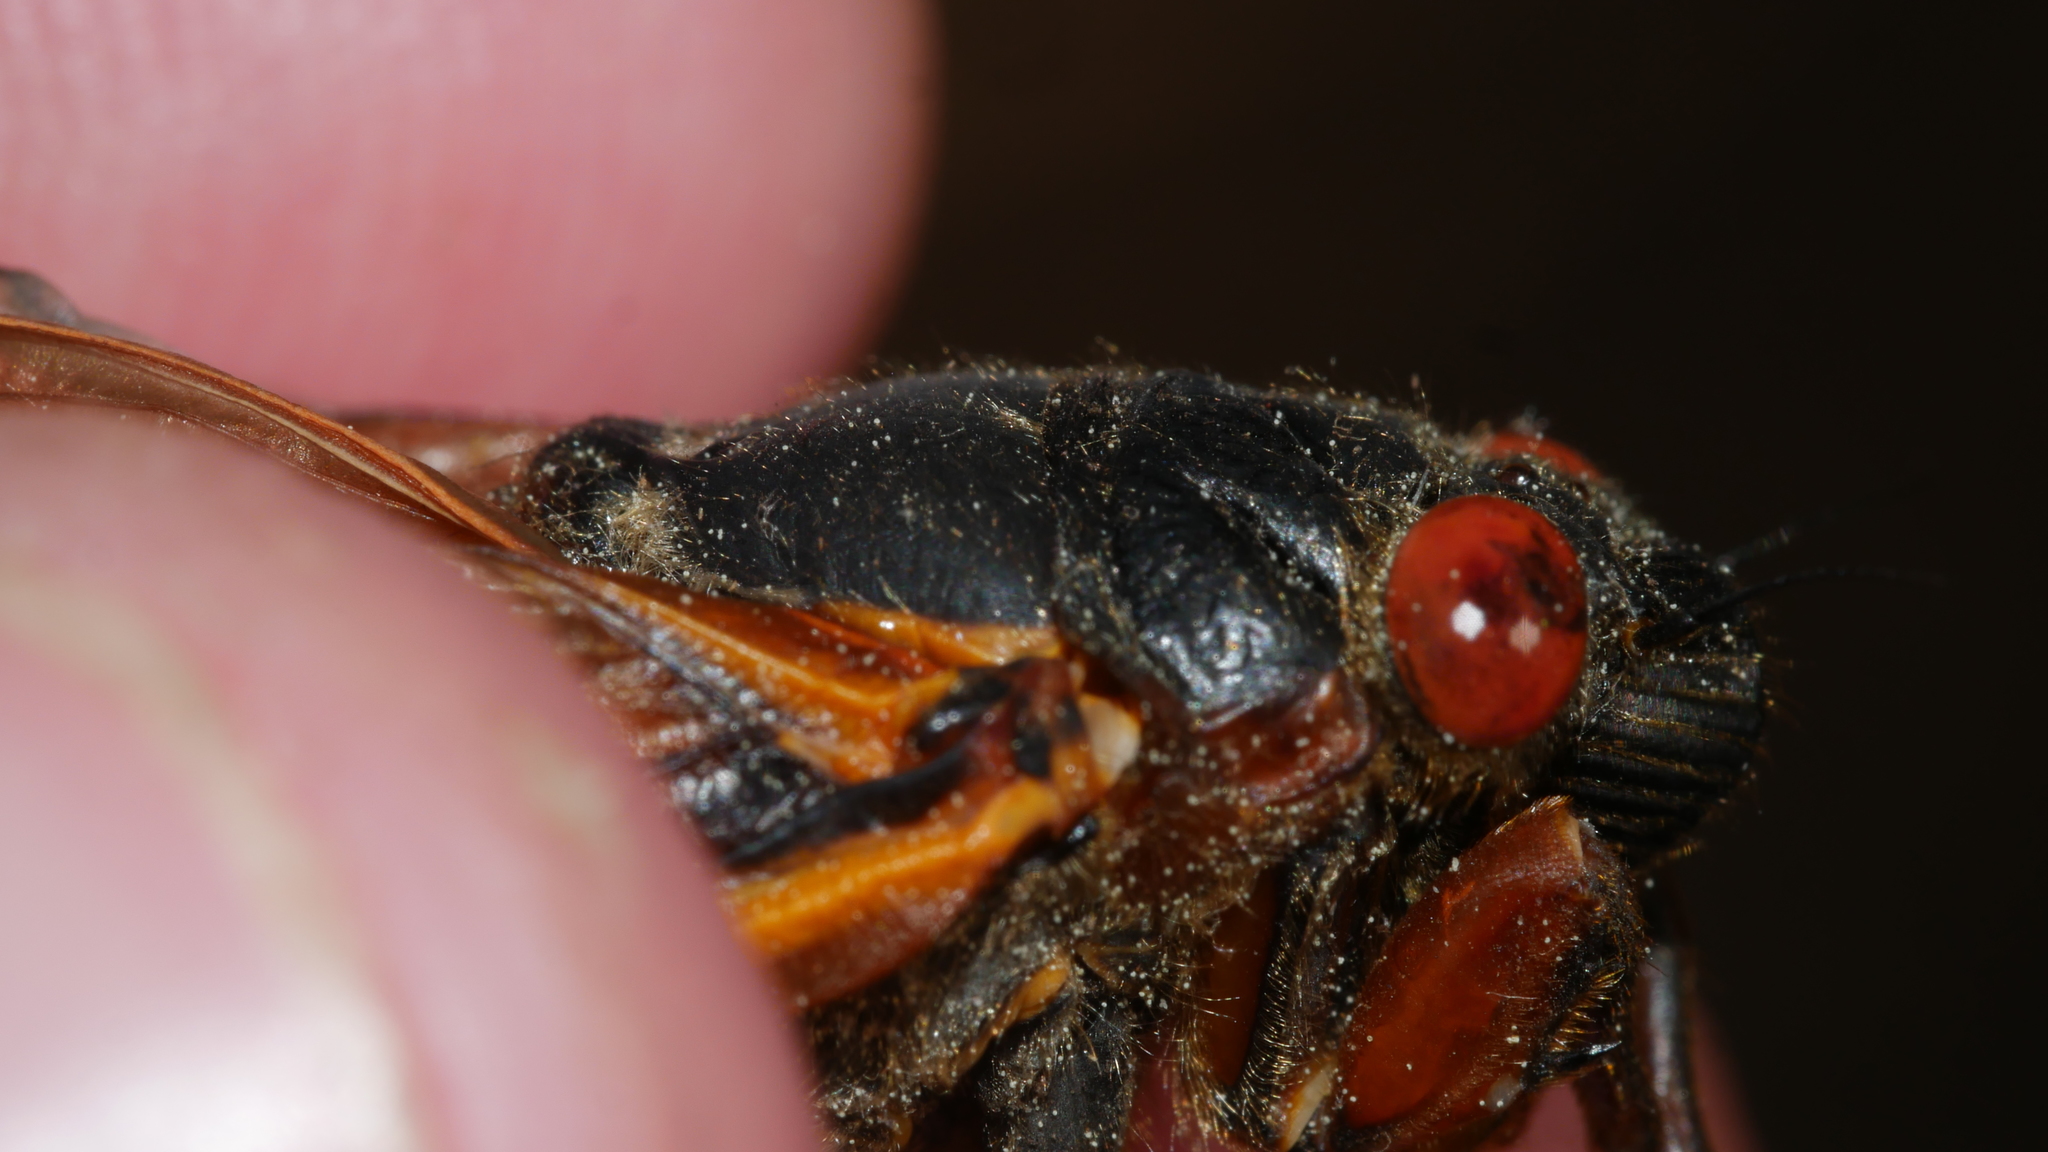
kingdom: Animalia
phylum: Arthropoda
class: Insecta
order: Hemiptera
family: Cicadidae
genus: Magicicada
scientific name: Magicicada septendecim
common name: Periodical cicada
